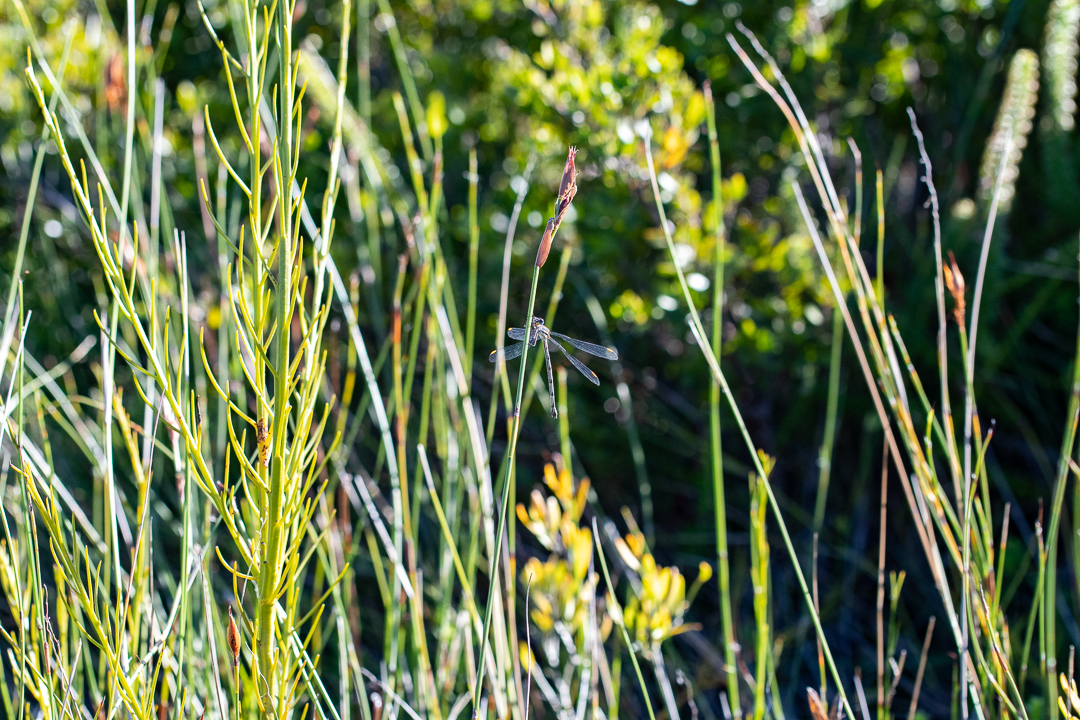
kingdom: Animalia
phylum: Arthropoda
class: Insecta
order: Odonata
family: Synlestidae
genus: Chlorolestes
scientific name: Chlorolestes conspicuus
